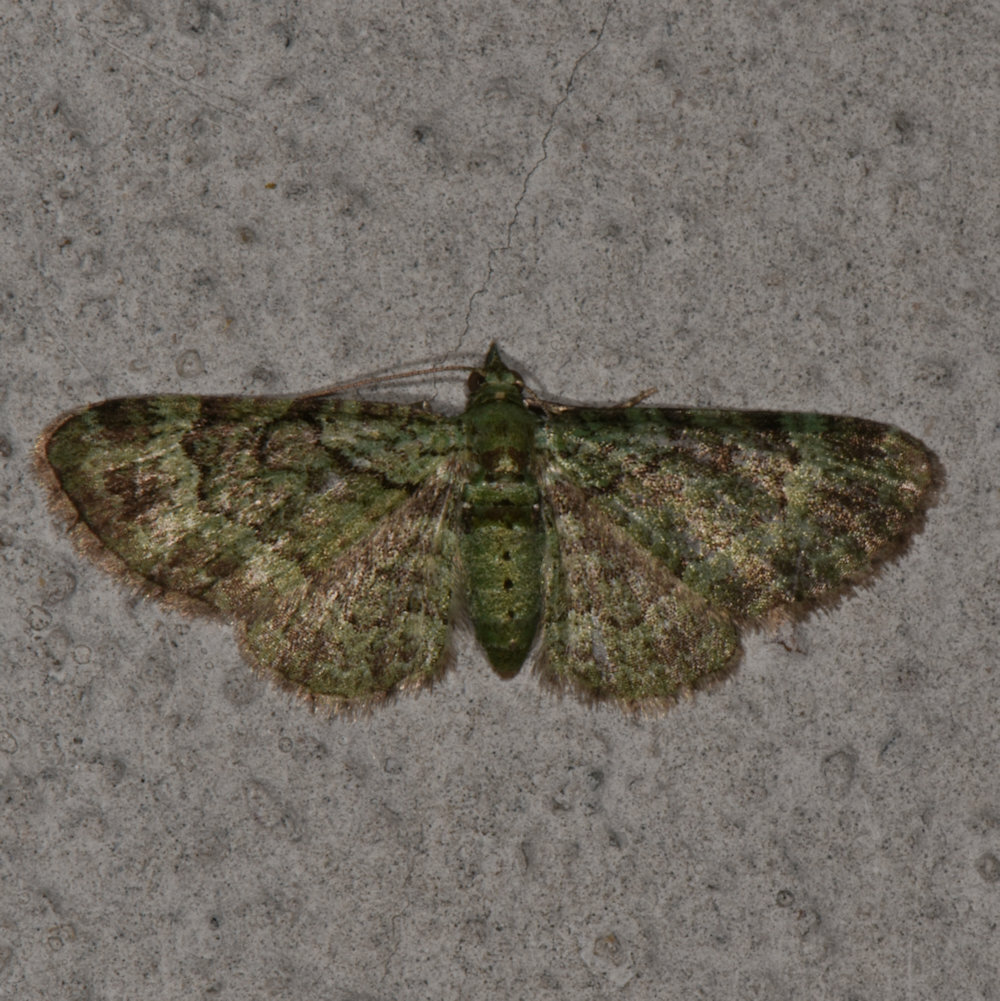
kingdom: Animalia
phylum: Arthropoda
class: Insecta
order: Lepidoptera
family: Geometridae
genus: Pasiphila
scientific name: Pasiphila rectangulata
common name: Green pug
